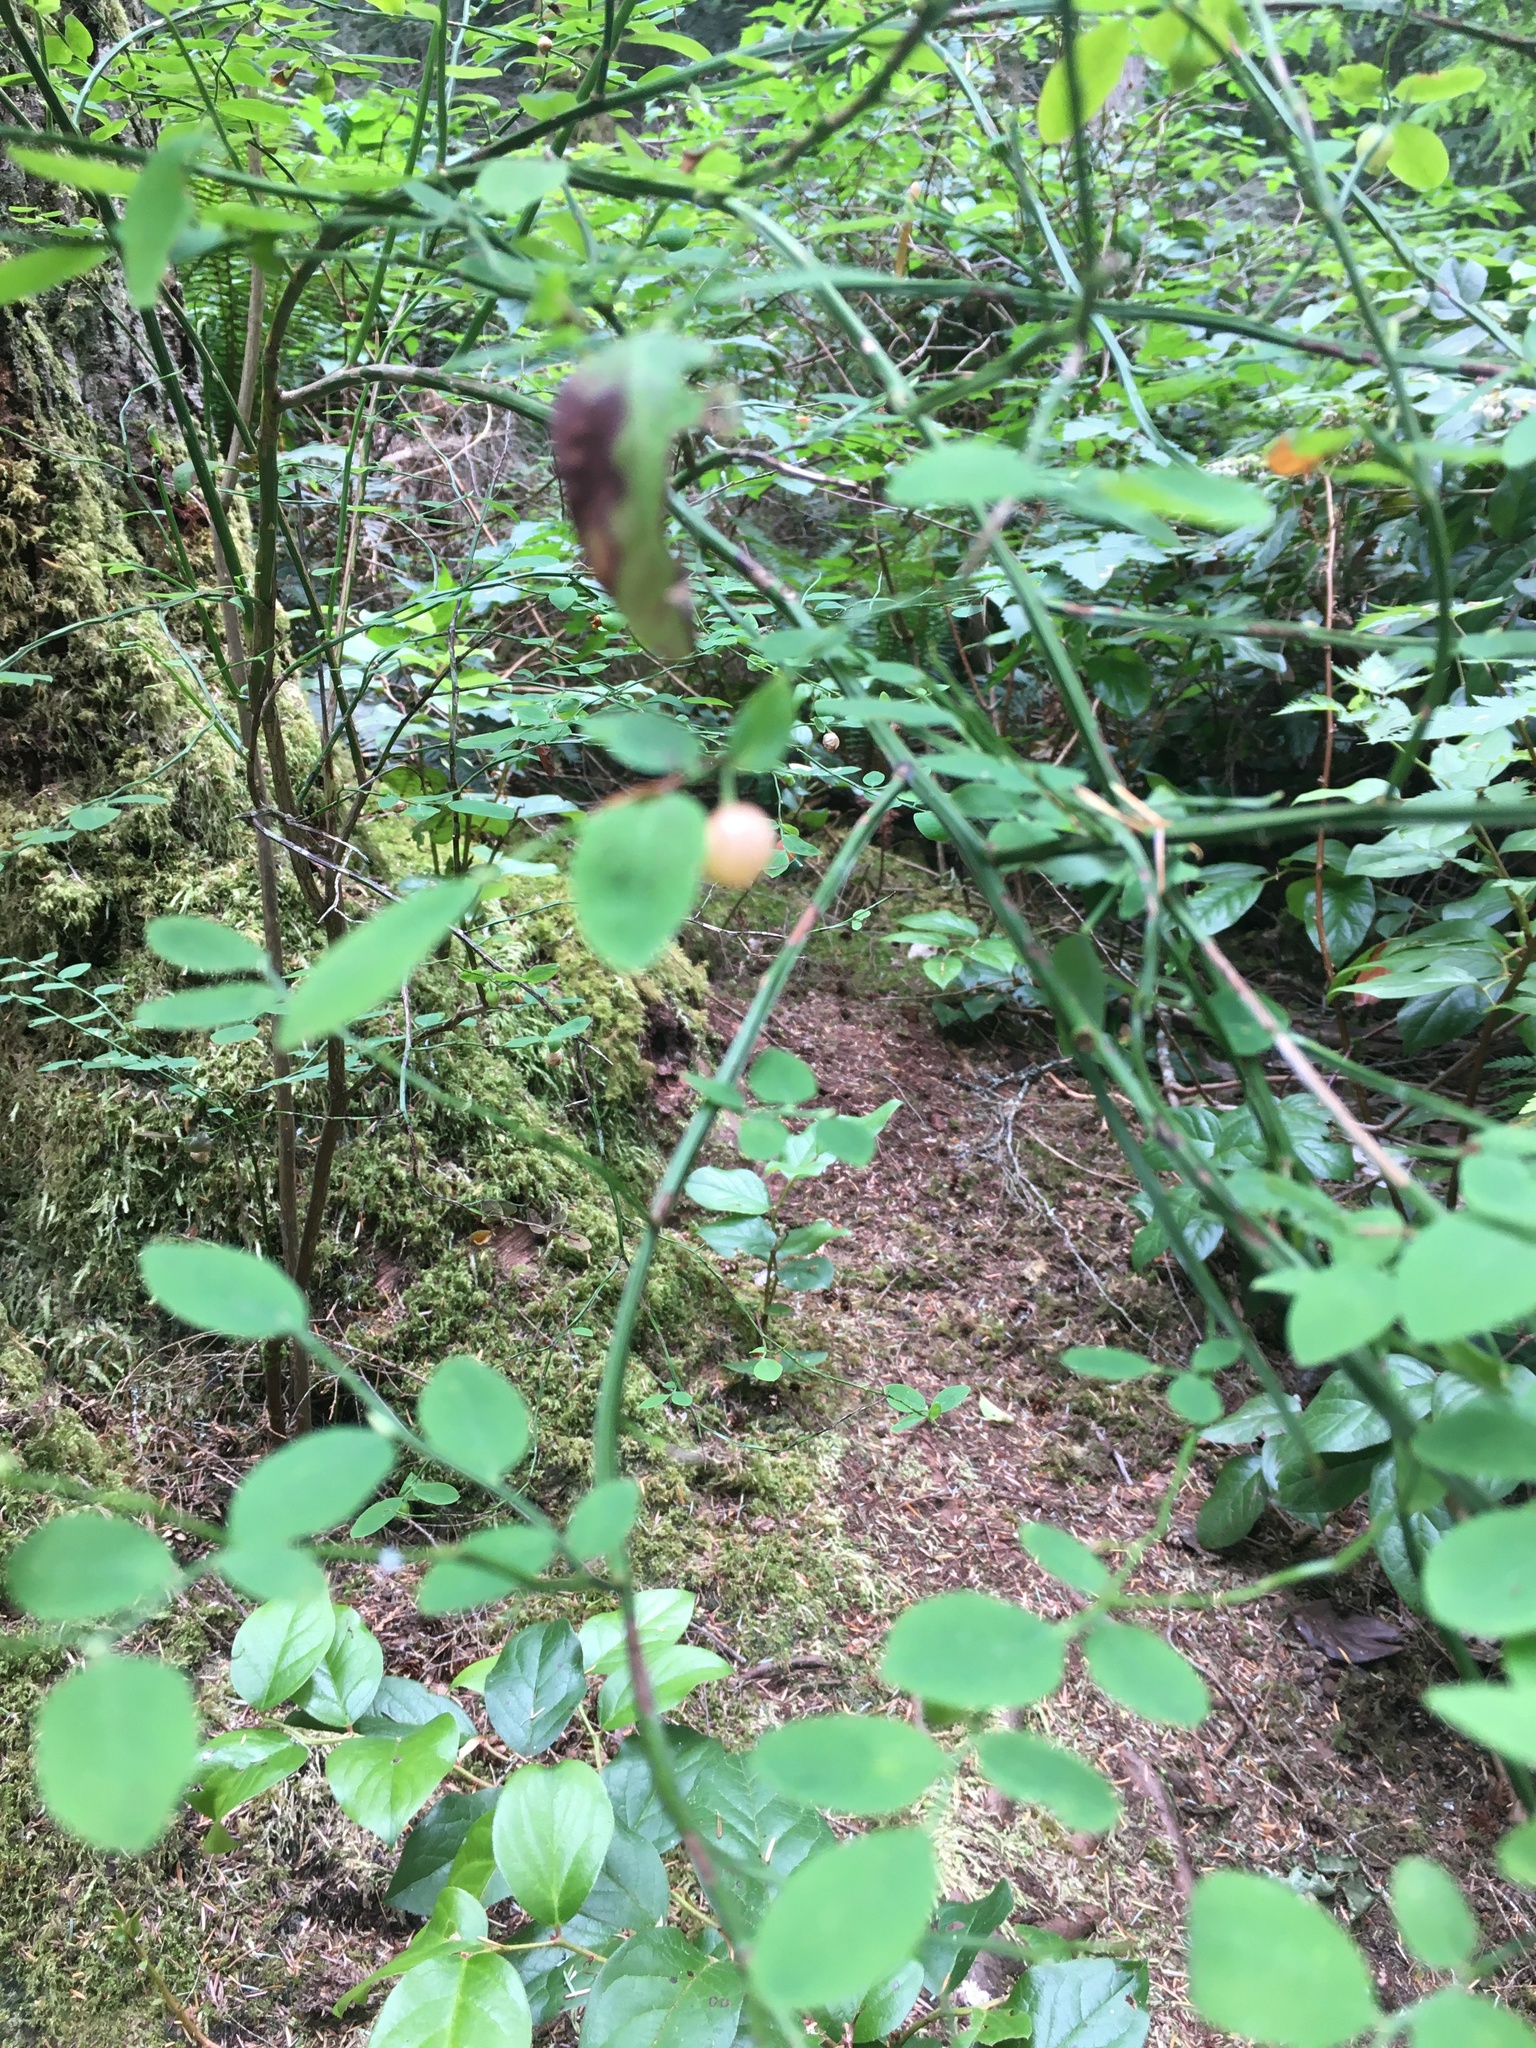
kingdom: Plantae
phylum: Tracheophyta
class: Magnoliopsida
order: Ericales
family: Ericaceae
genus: Vaccinium
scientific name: Vaccinium parvifolium
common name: Red-huckleberry
